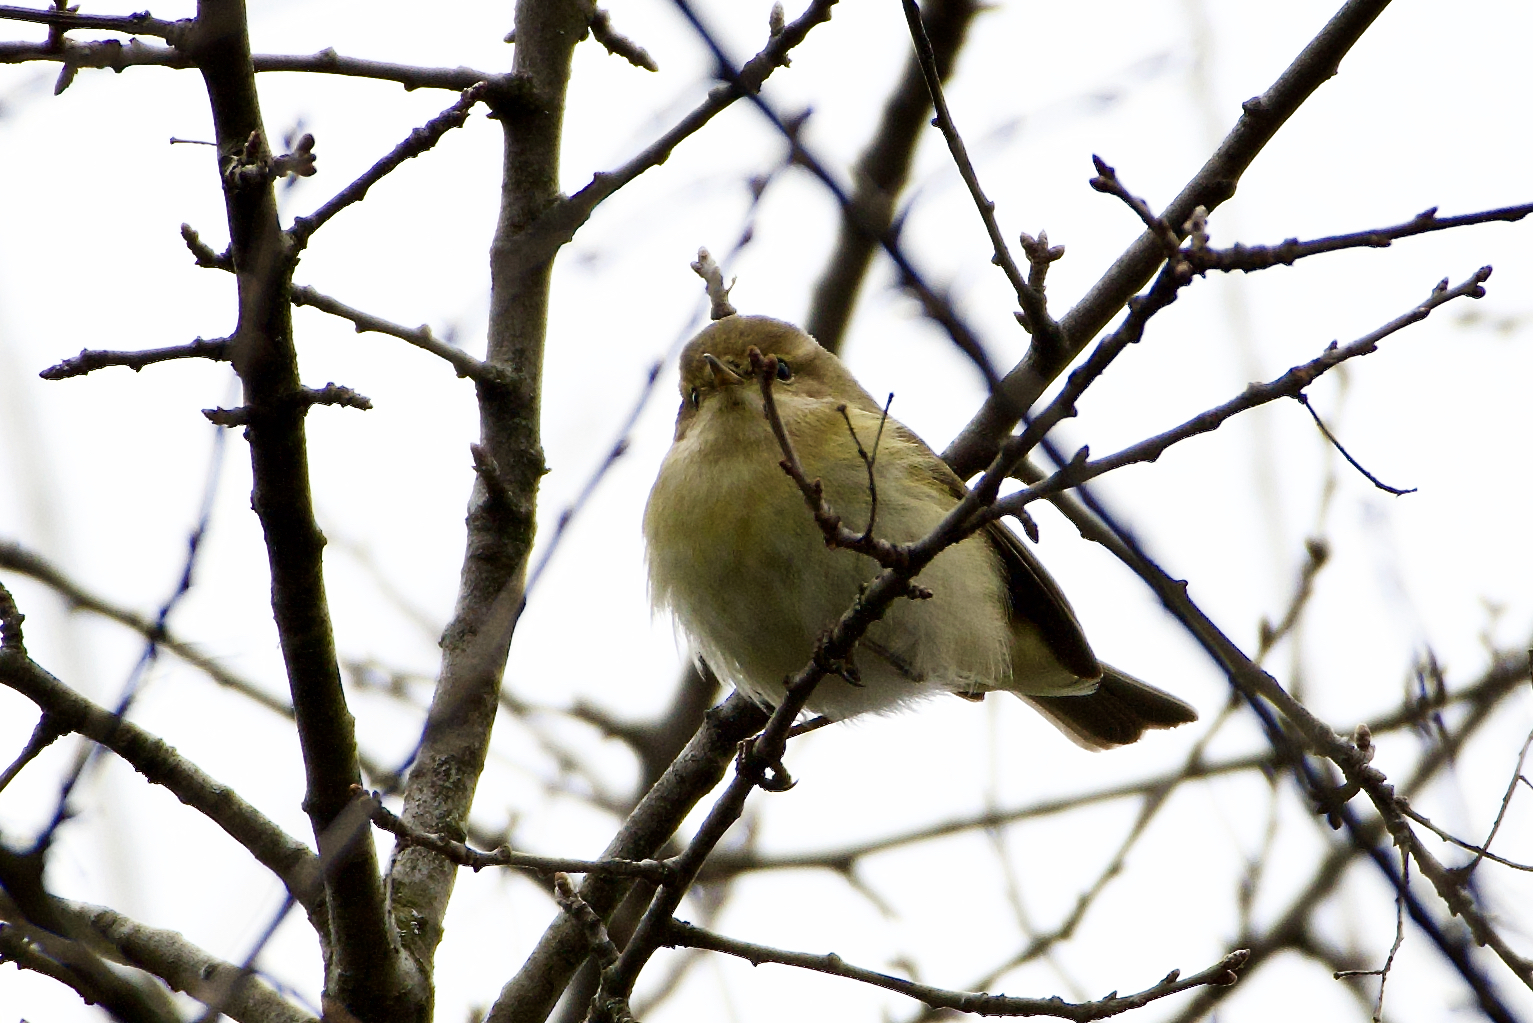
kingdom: Animalia
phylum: Chordata
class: Aves
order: Passeriformes
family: Phylloscopidae
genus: Phylloscopus
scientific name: Phylloscopus collybita
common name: Common chiffchaff
